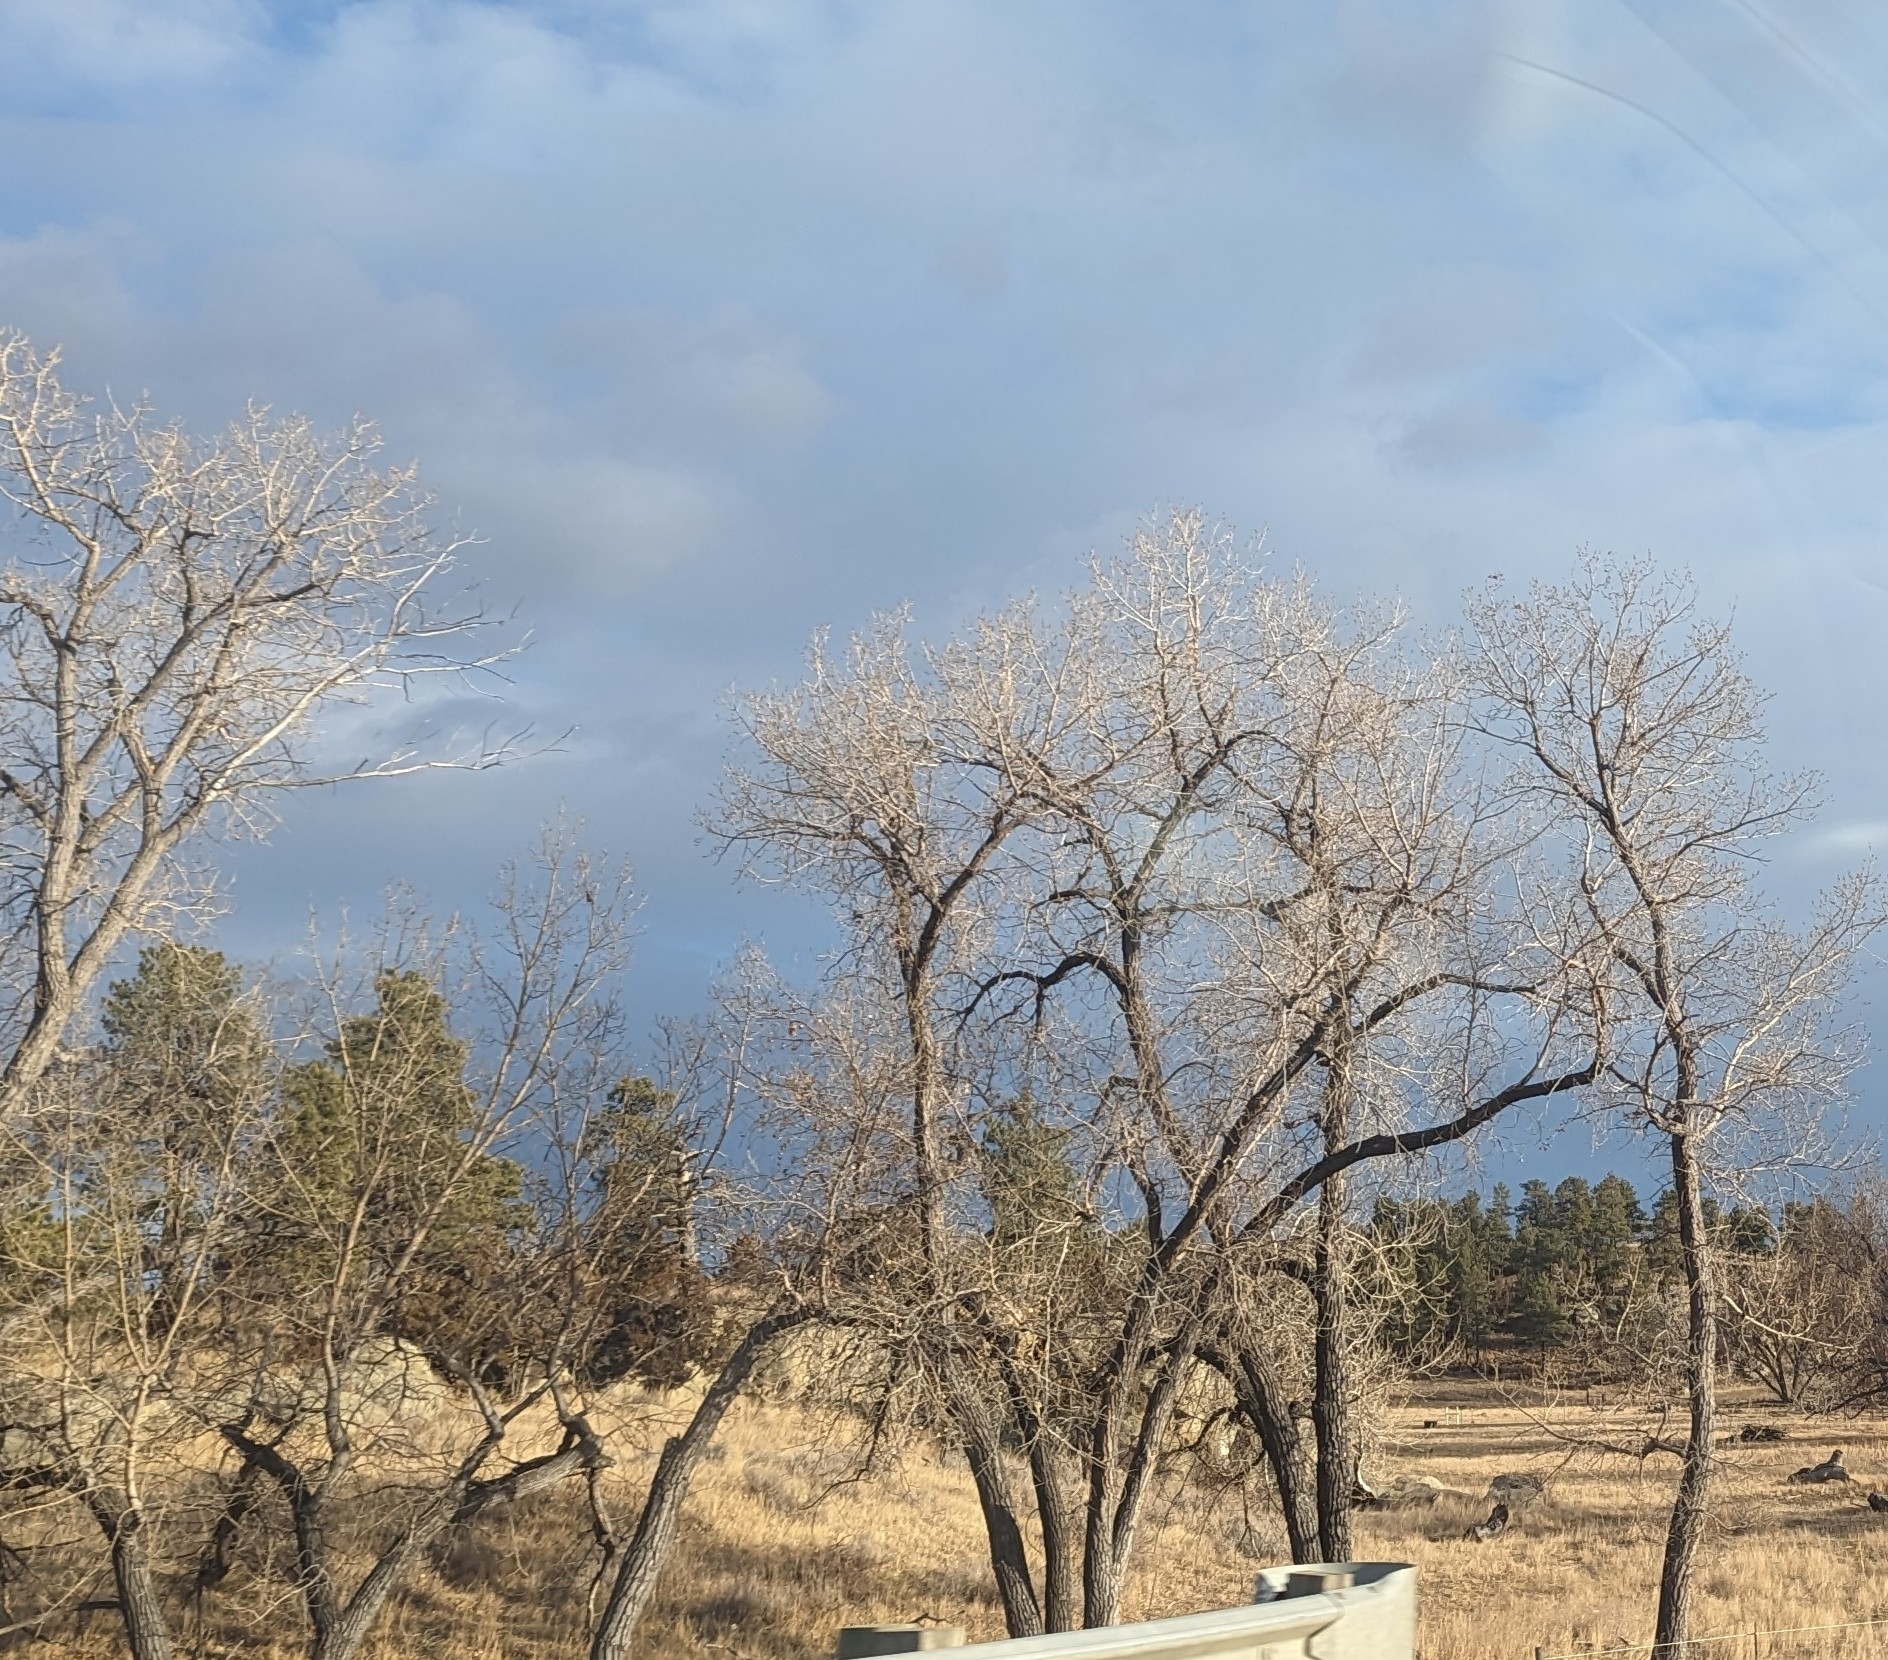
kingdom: Plantae
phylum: Tracheophyta
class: Magnoliopsida
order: Malpighiales
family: Salicaceae
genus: Populus
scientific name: Populus deltoides
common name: Eastern cottonwood
